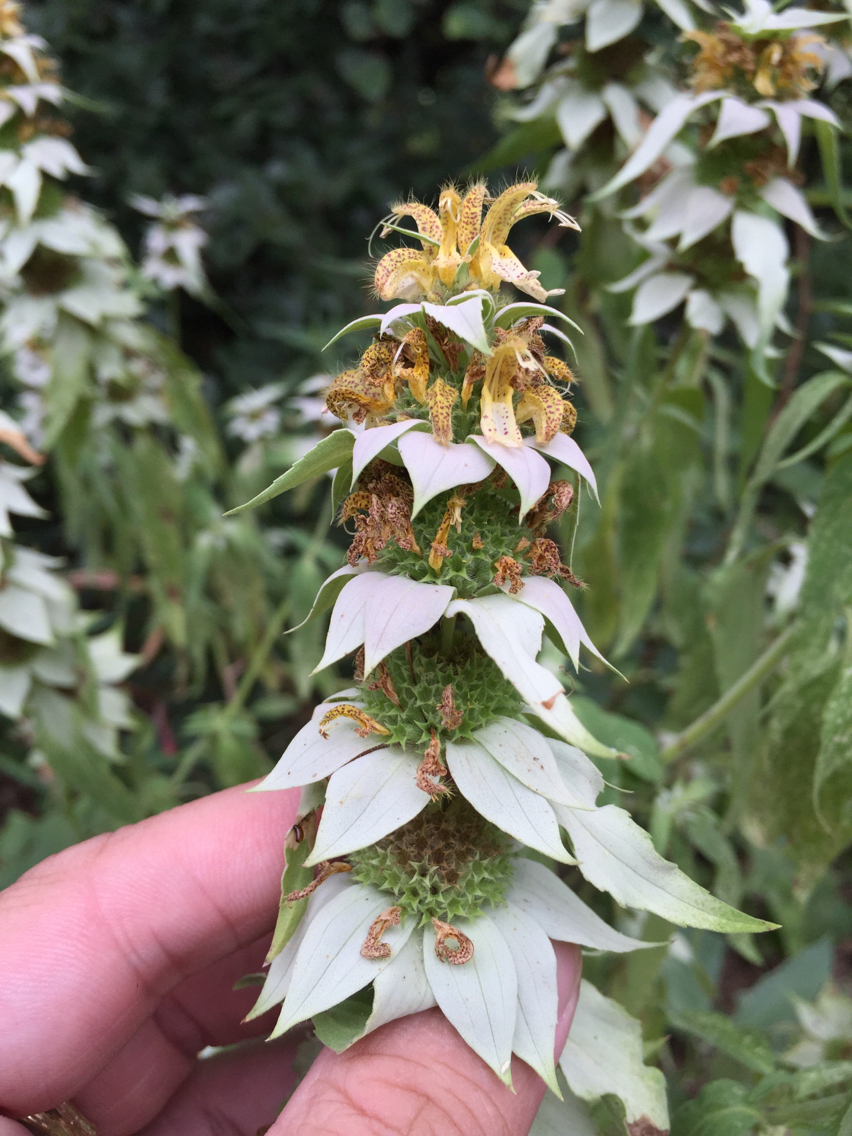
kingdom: Plantae
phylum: Tracheophyta
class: Magnoliopsida
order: Lamiales
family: Lamiaceae
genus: Monarda
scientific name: Monarda punctata
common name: Dotted monarda
